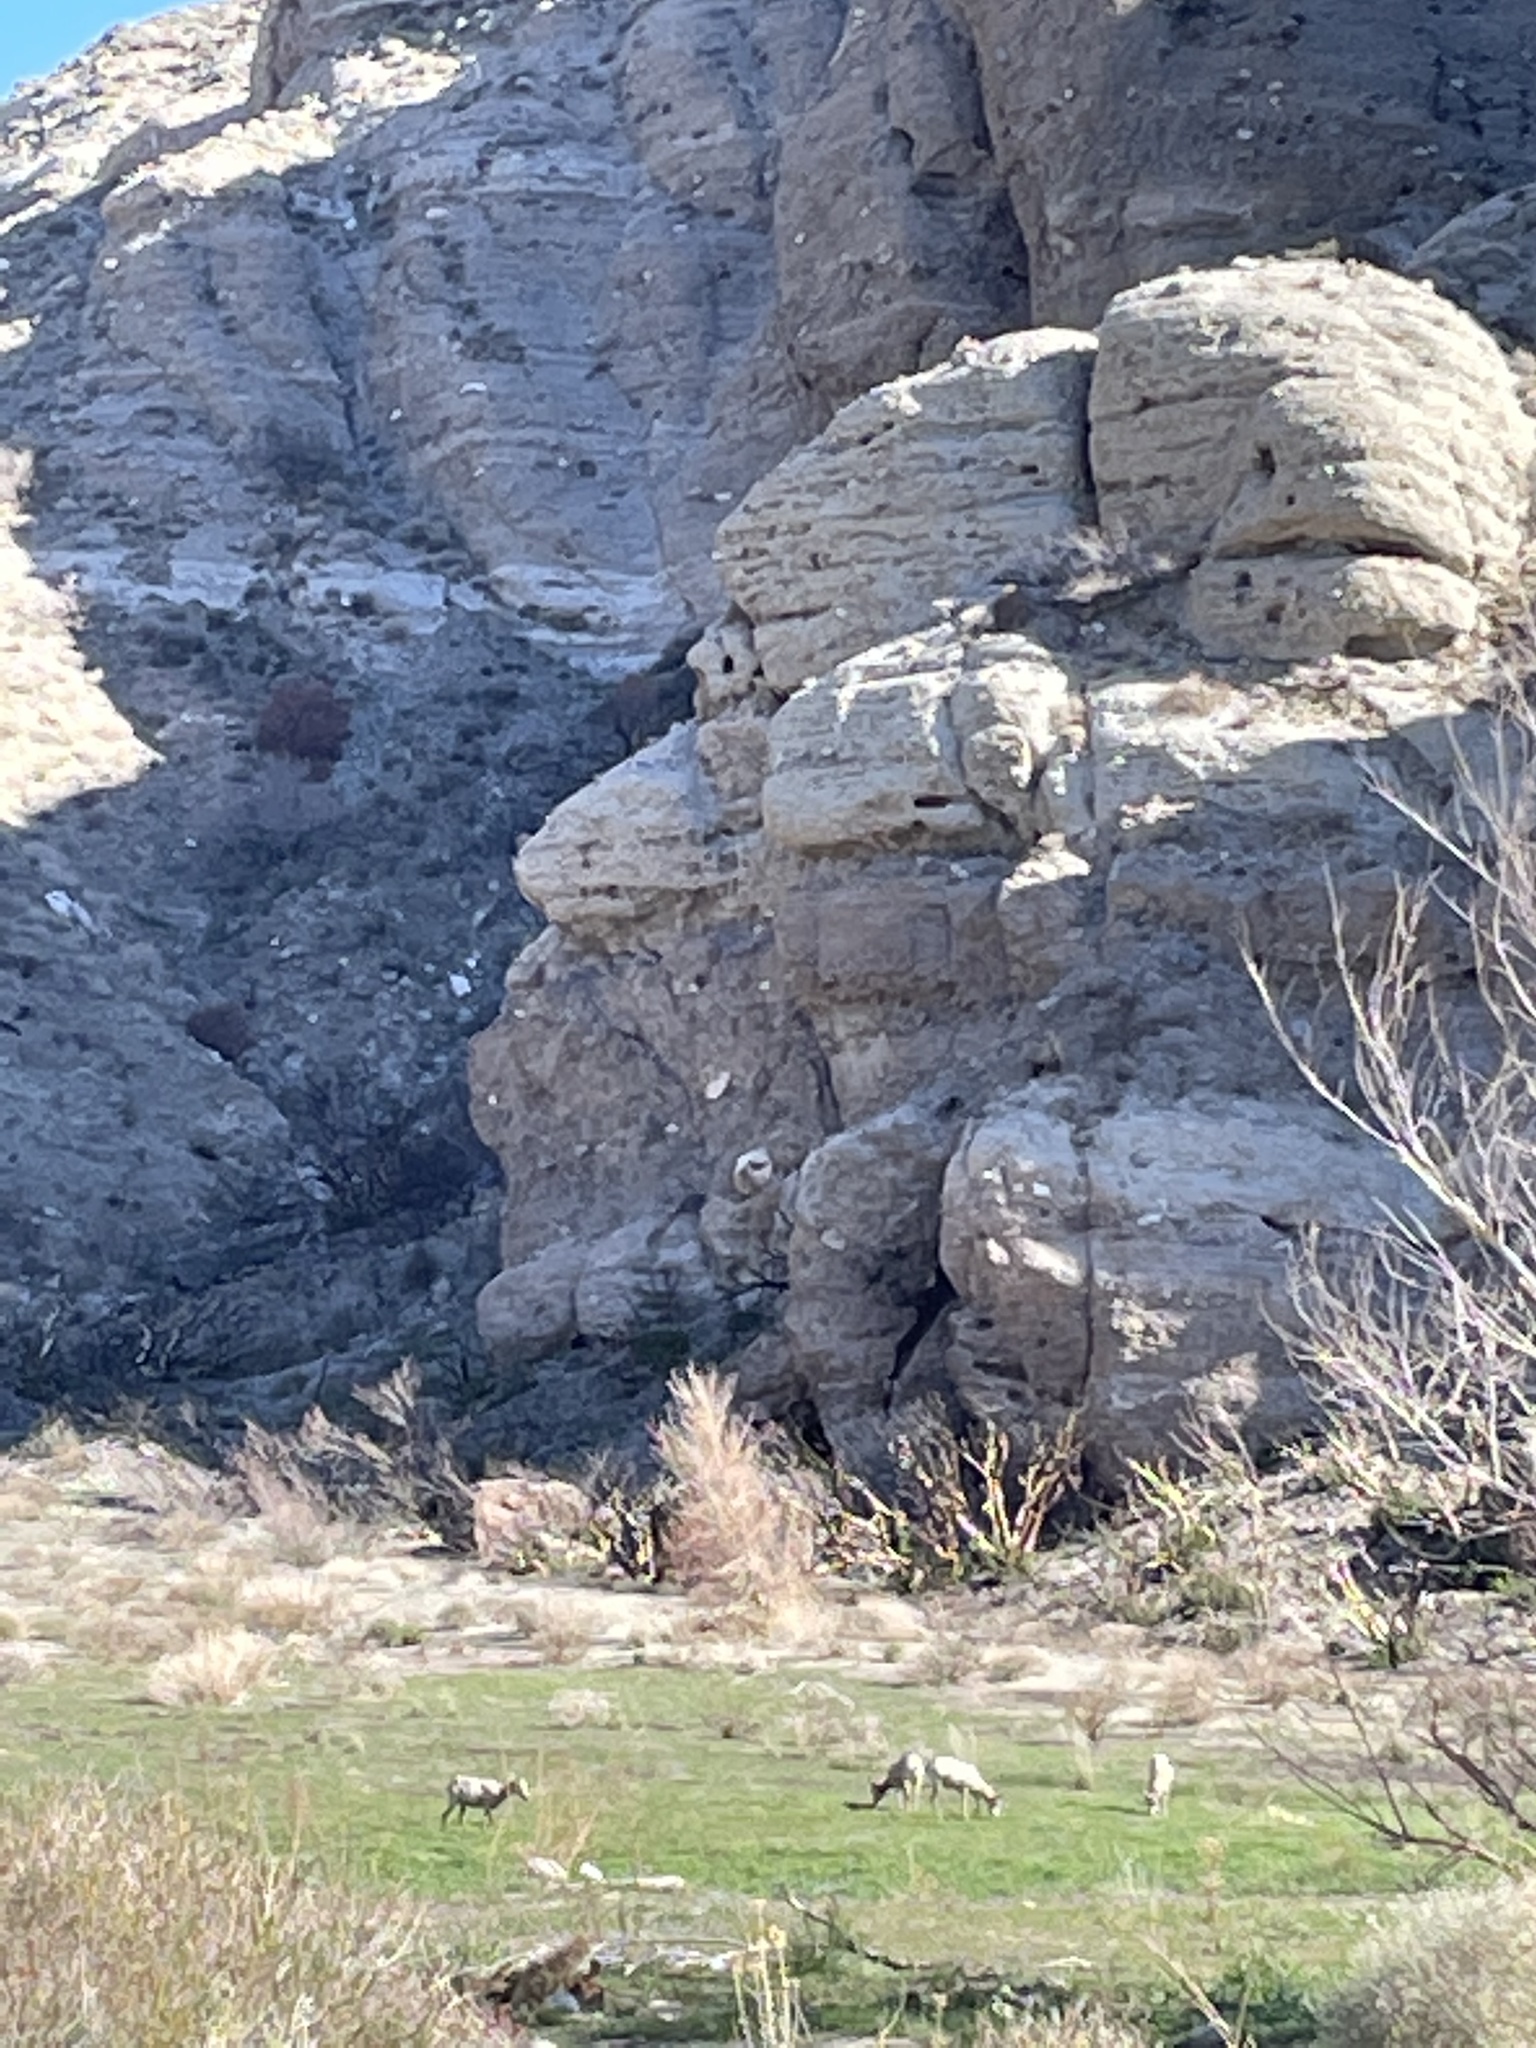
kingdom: Animalia
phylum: Chordata
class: Mammalia
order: Artiodactyla
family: Bovidae
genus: Ovis
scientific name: Ovis canadensis
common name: Bighorn sheep
